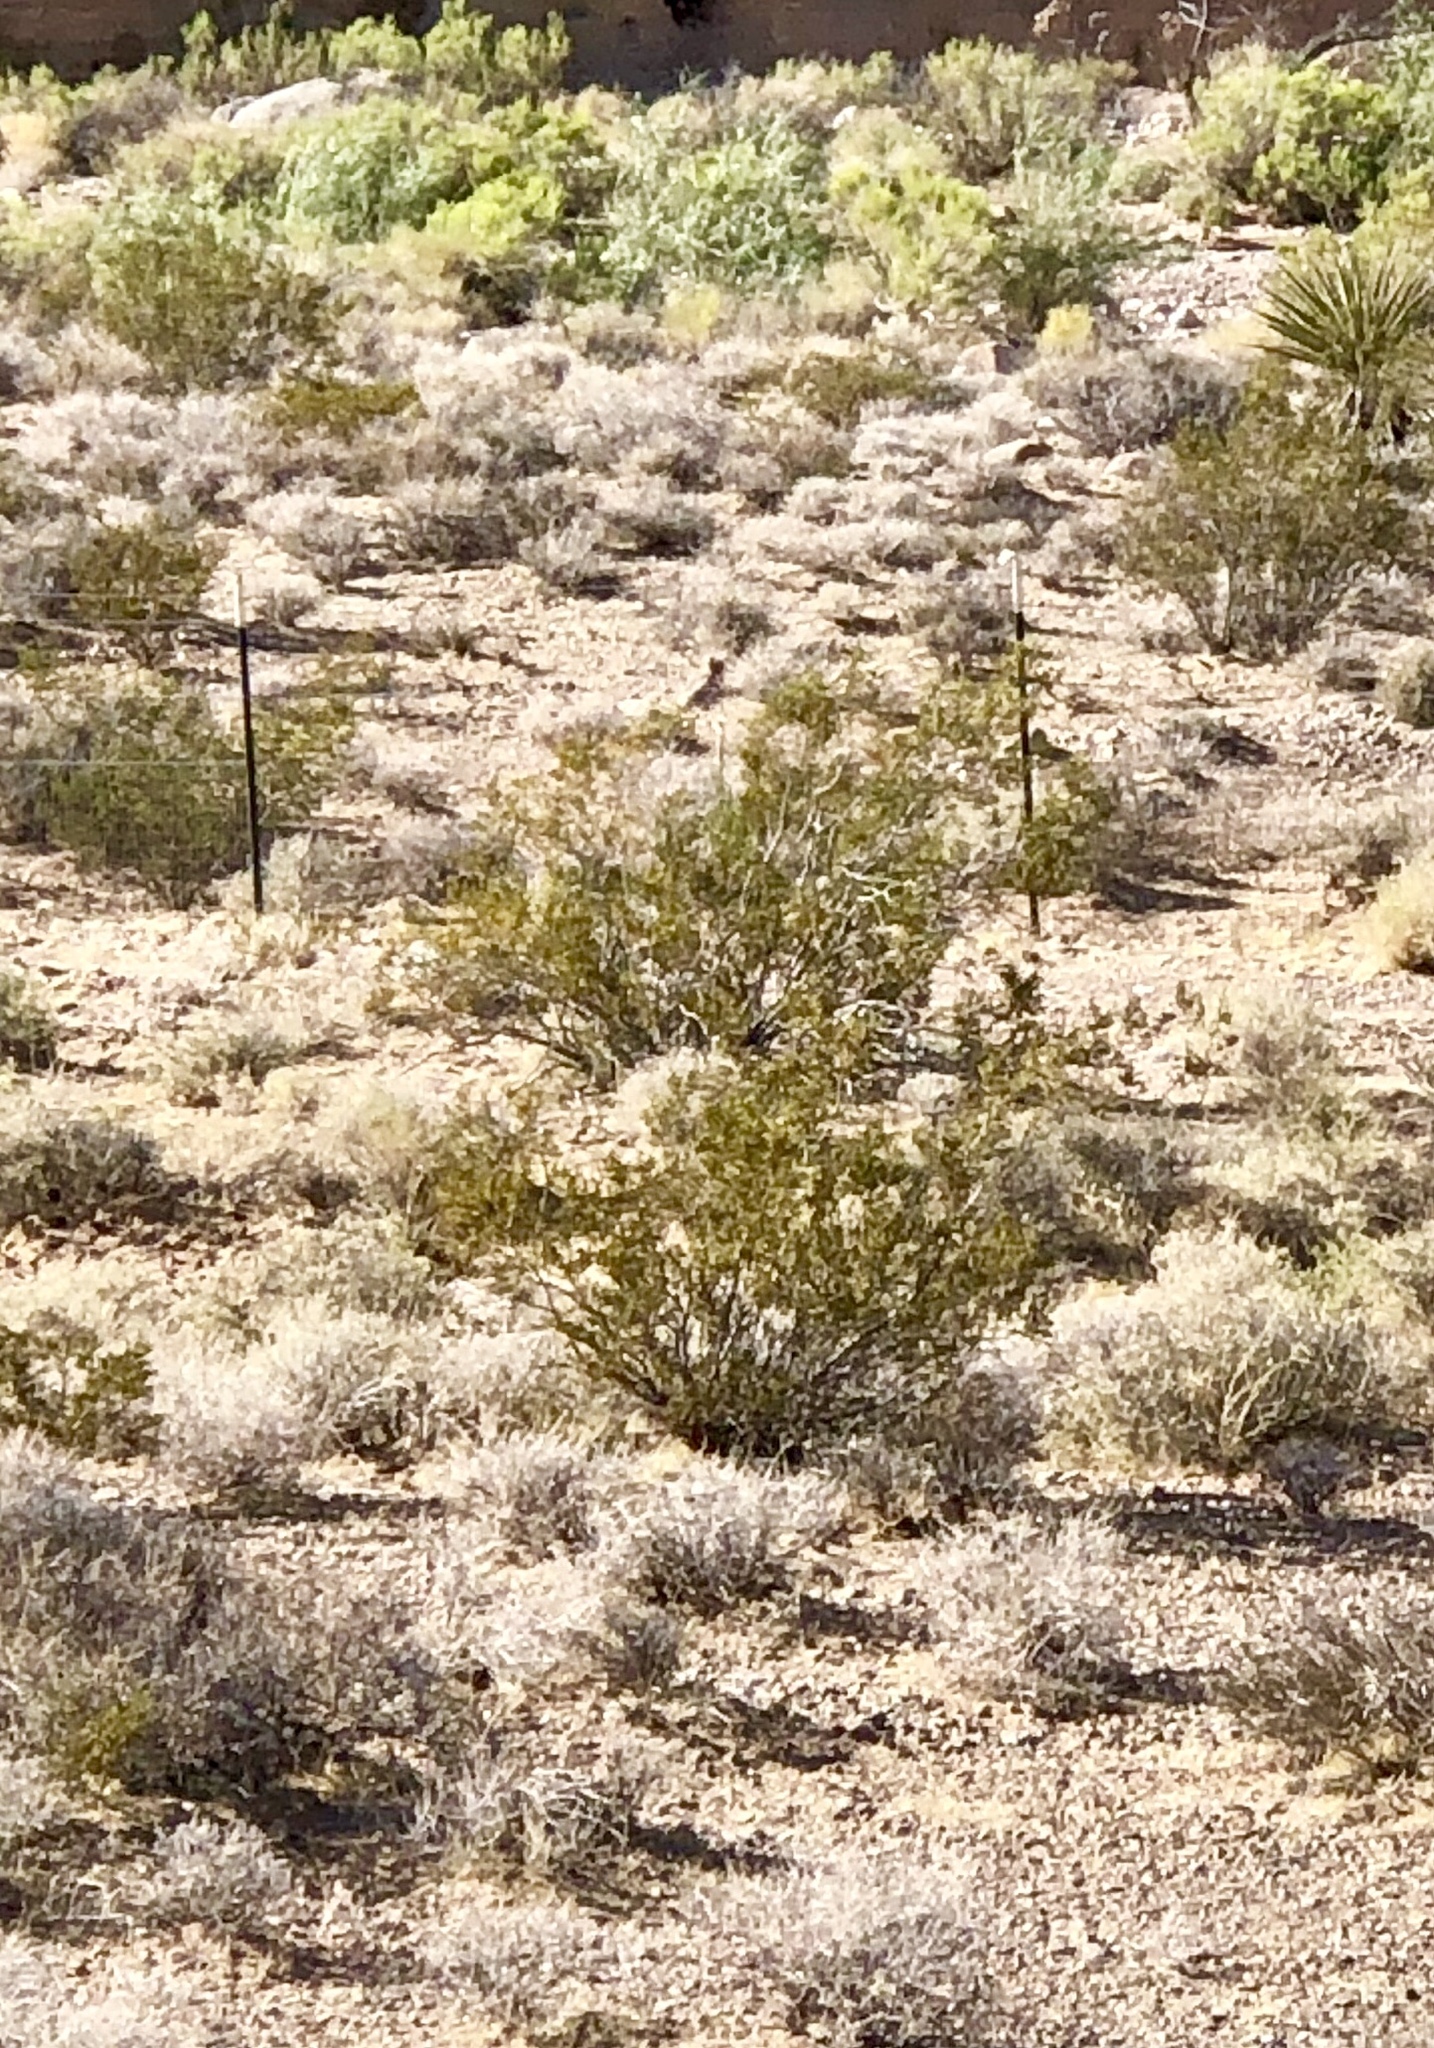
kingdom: Plantae
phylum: Tracheophyta
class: Magnoliopsida
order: Zygophyllales
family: Zygophyllaceae
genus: Larrea
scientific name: Larrea tridentata
